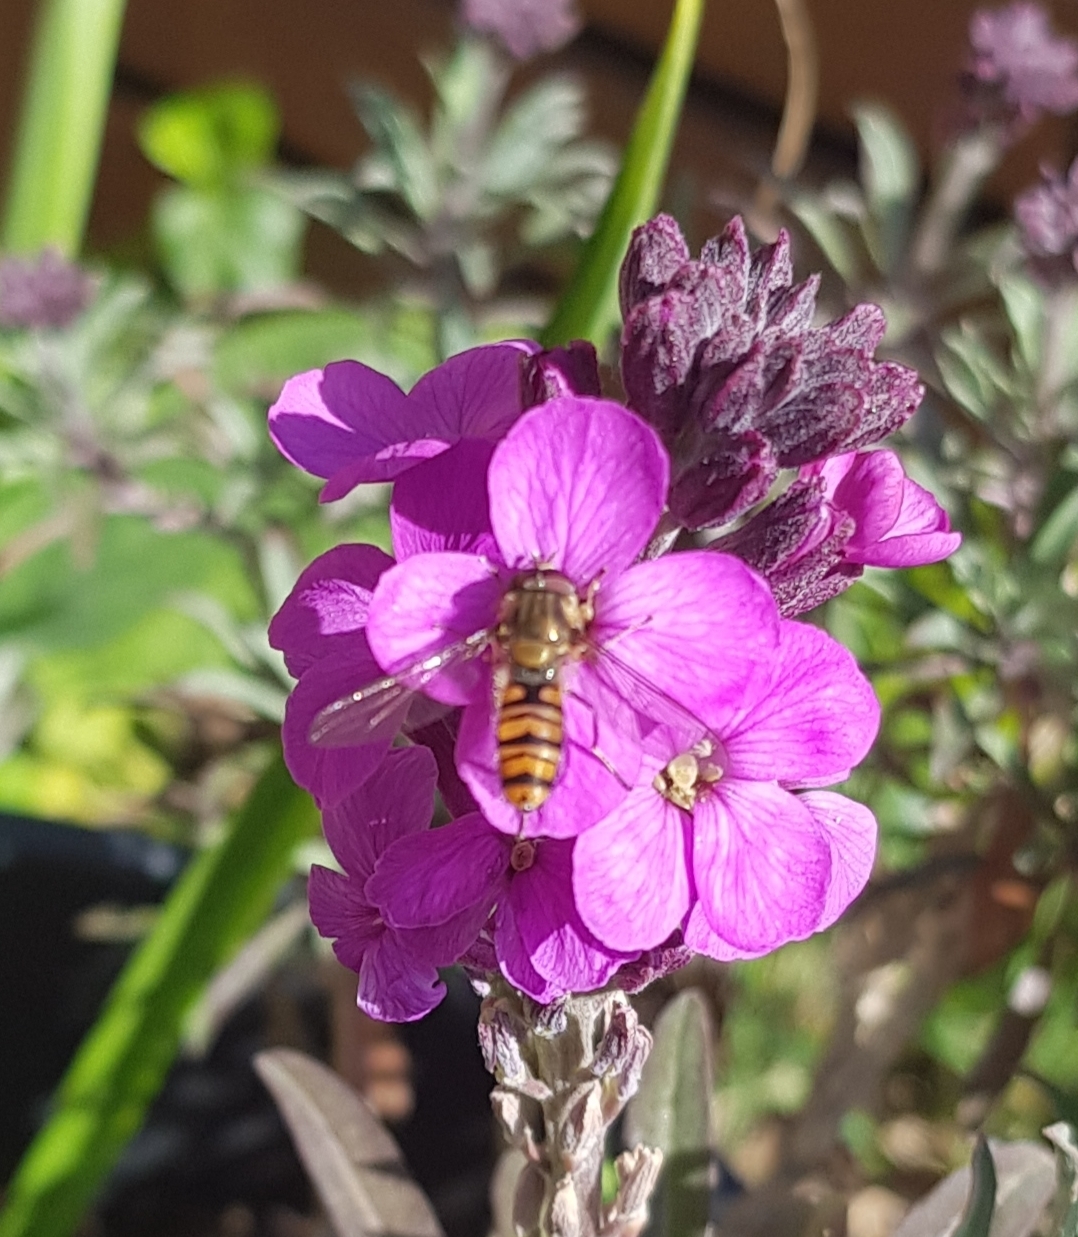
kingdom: Animalia
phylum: Arthropoda
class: Insecta
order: Diptera
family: Syrphidae
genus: Episyrphus
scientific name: Episyrphus balteatus
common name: Marmalade hoverfly
